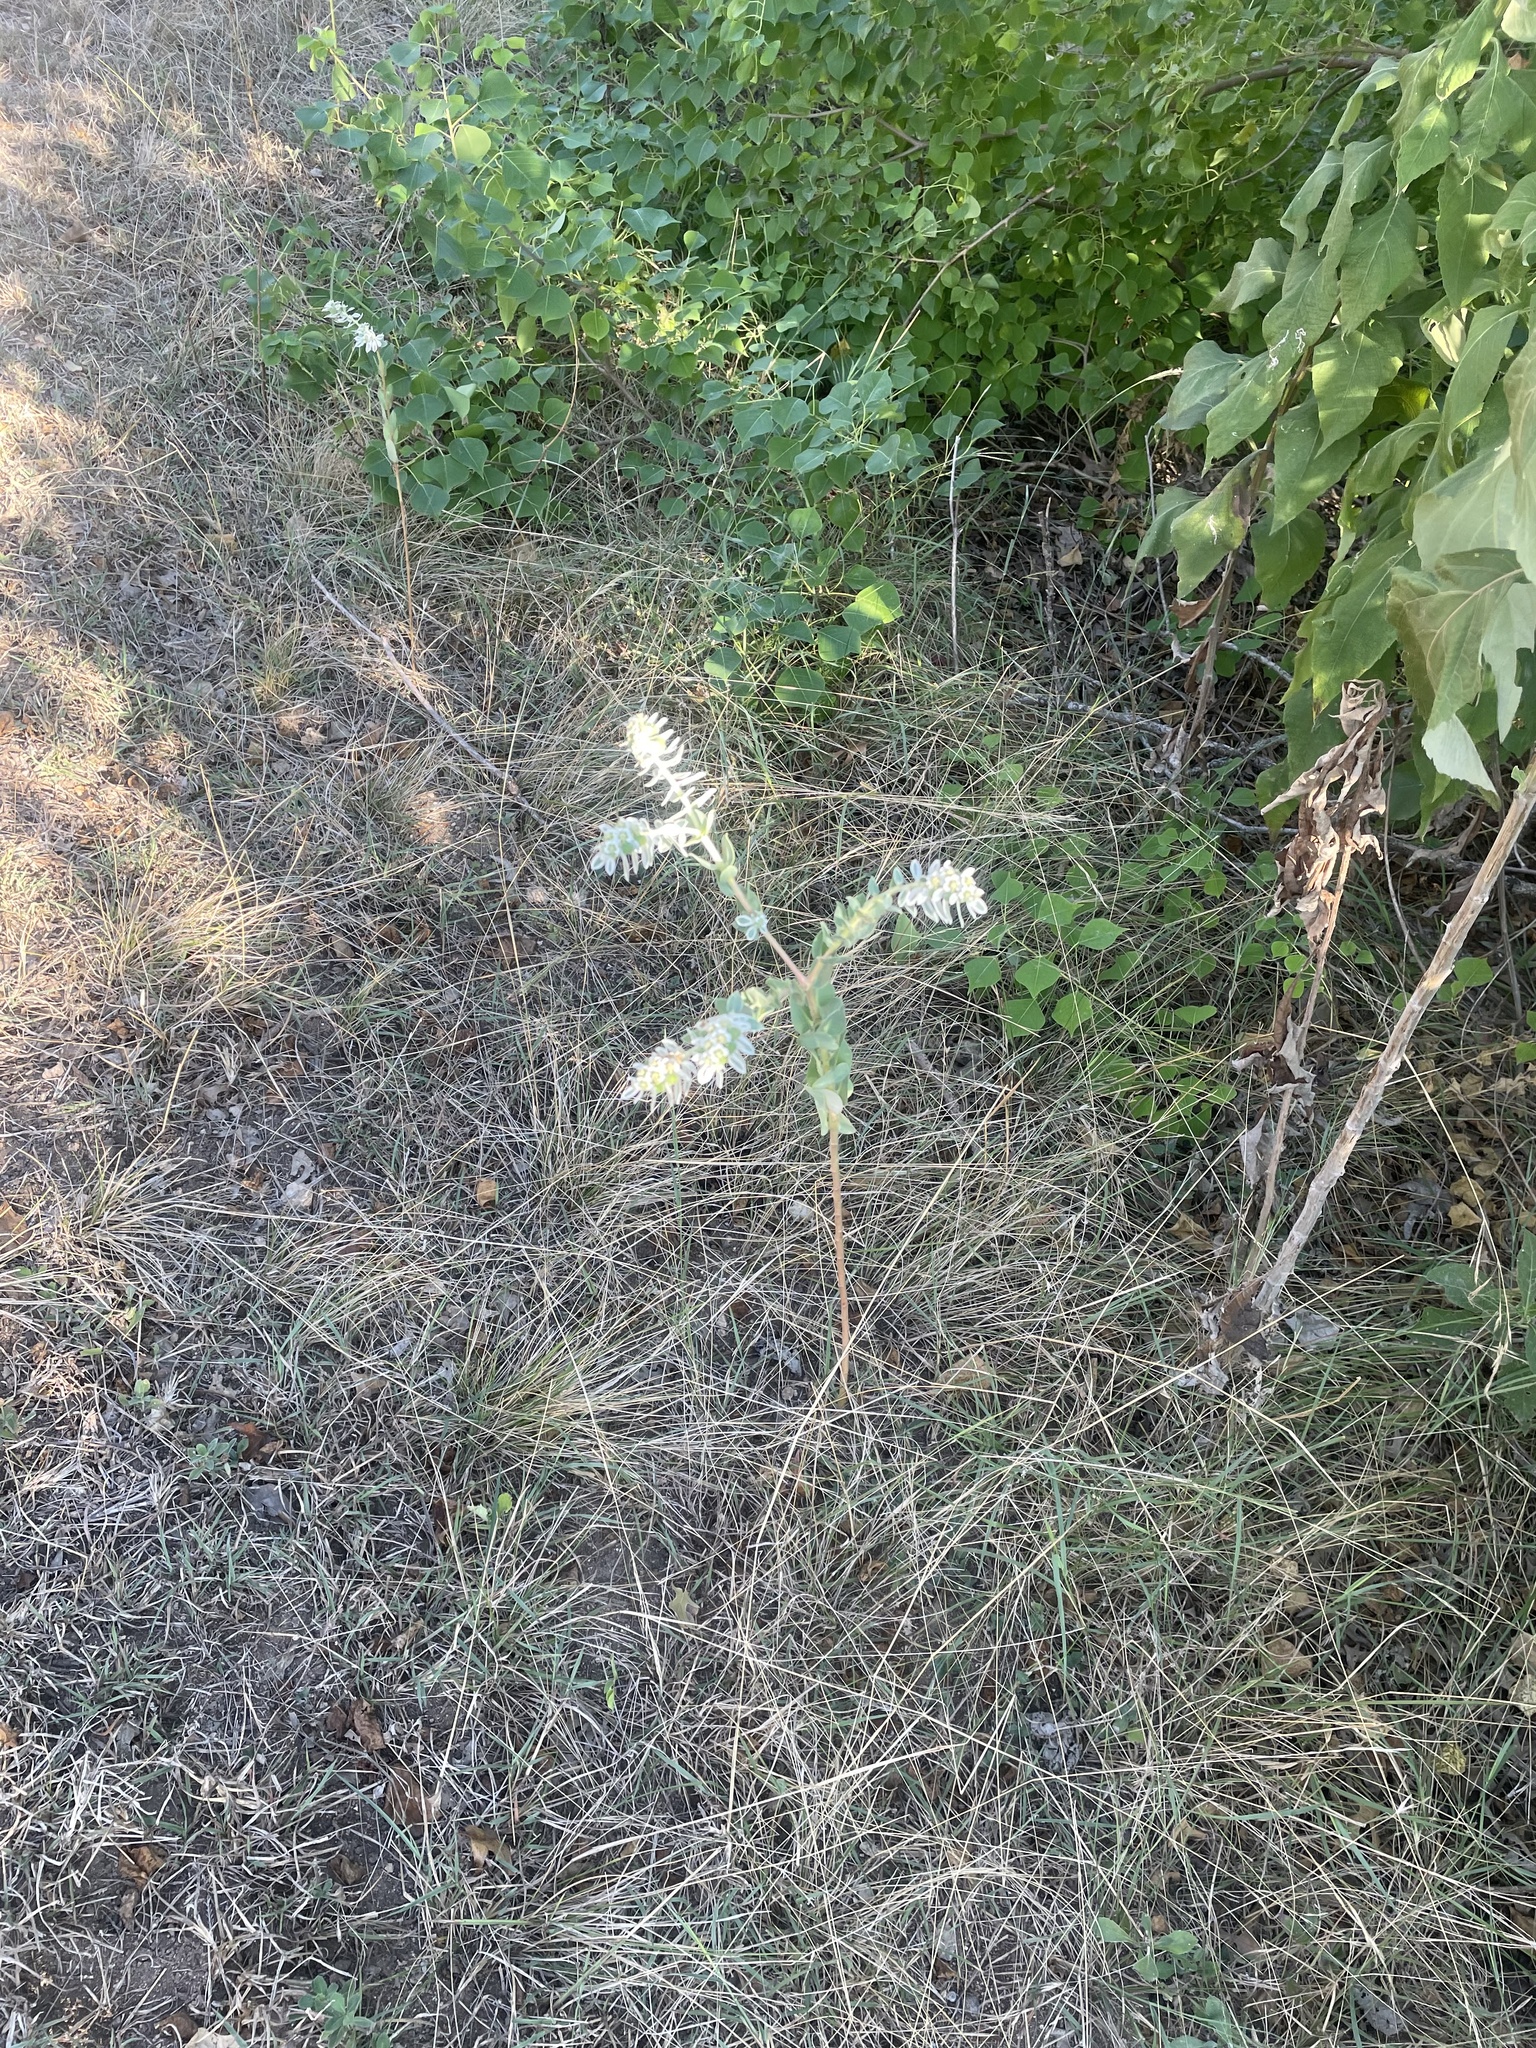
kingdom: Plantae
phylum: Tracheophyta
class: Magnoliopsida
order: Malpighiales
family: Euphorbiaceae
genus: Euphorbia
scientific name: Euphorbia marginata
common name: Ghostweed
